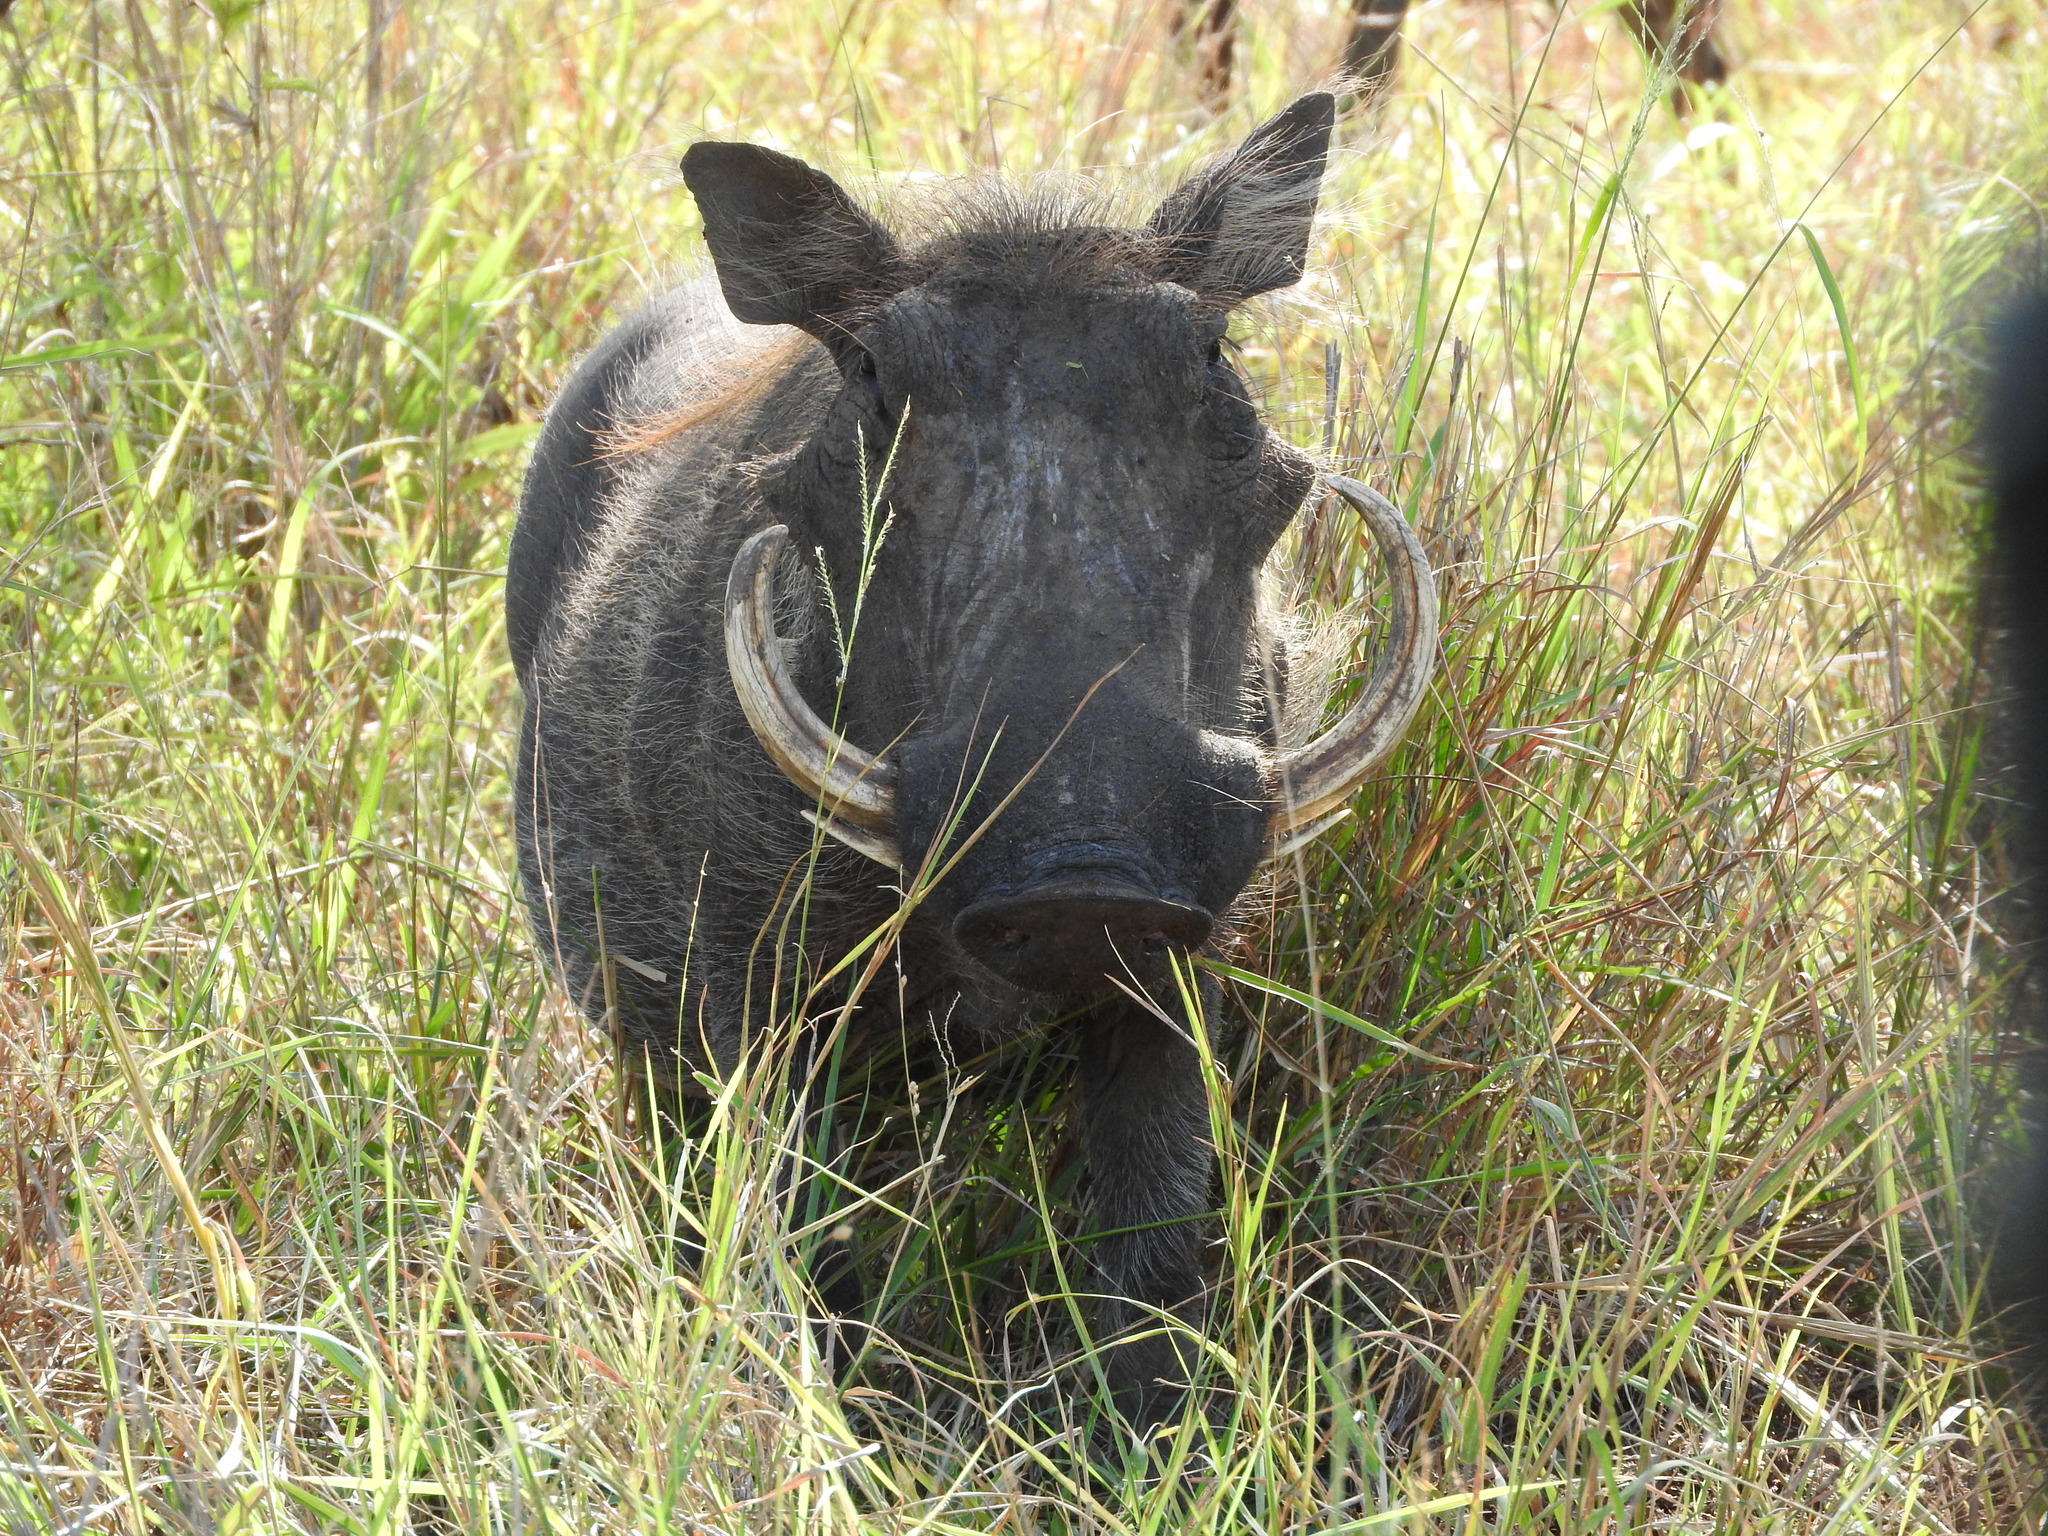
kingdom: Animalia
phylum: Chordata
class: Mammalia
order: Artiodactyla
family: Suidae
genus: Phacochoerus
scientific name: Phacochoerus africanus
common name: Common warthog
